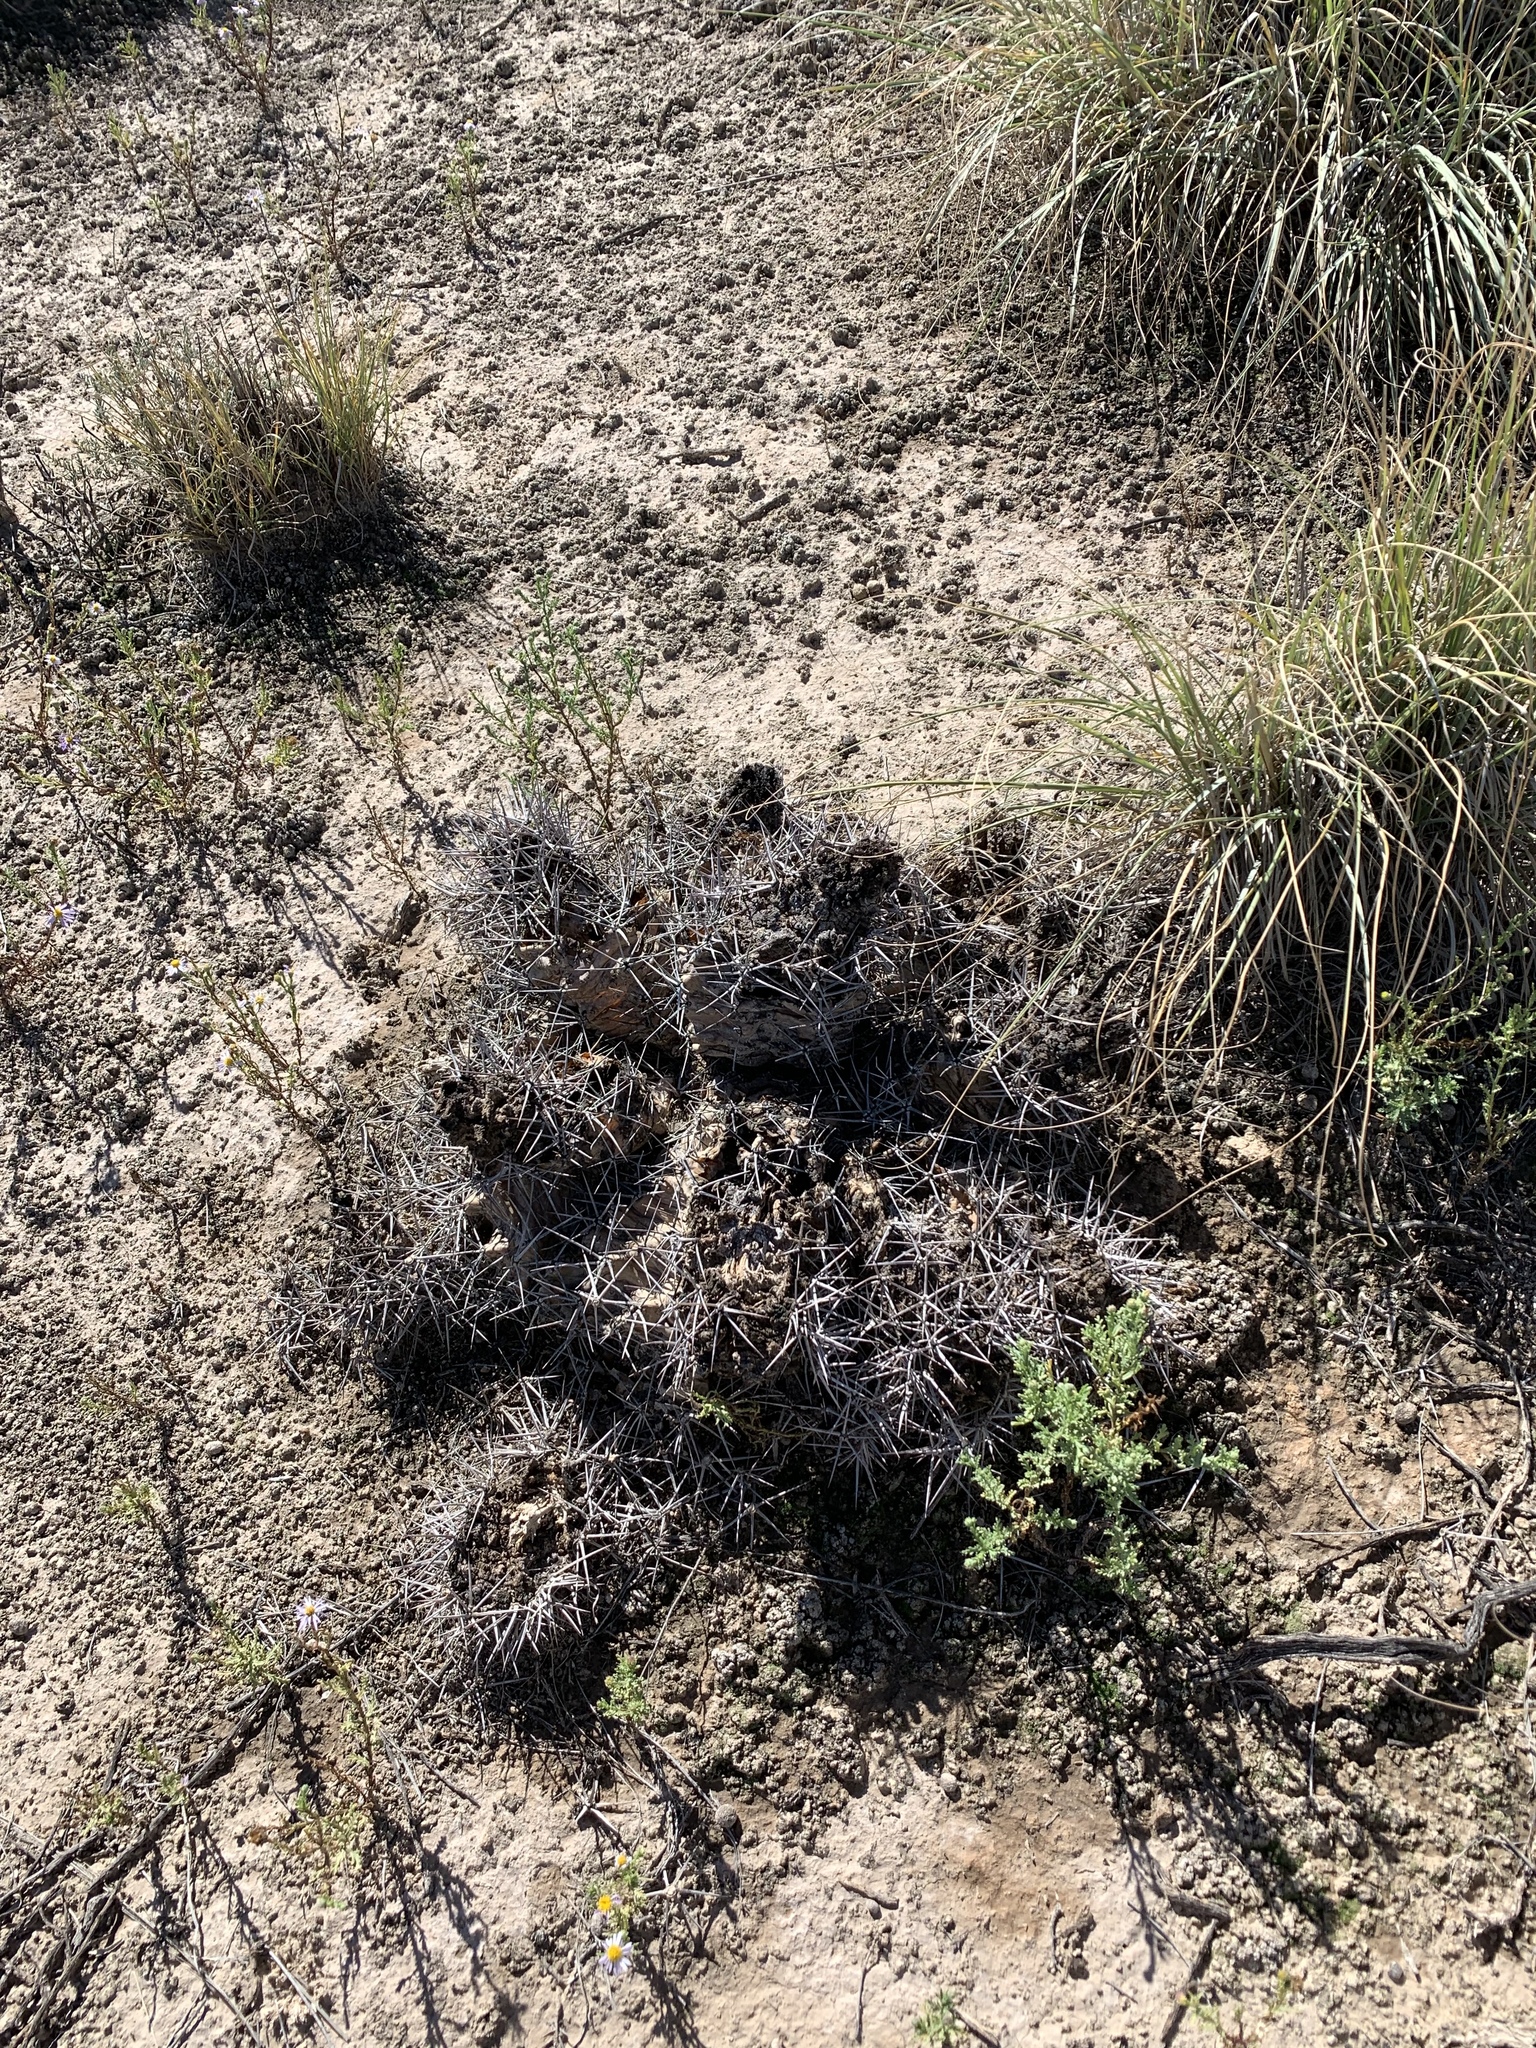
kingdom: Plantae
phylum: Tracheophyta
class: Magnoliopsida
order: Caryophyllales
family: Cactaceae
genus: Echinocereus
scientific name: Echinocereus triglochidiatus
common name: Claretcup hedgehog
